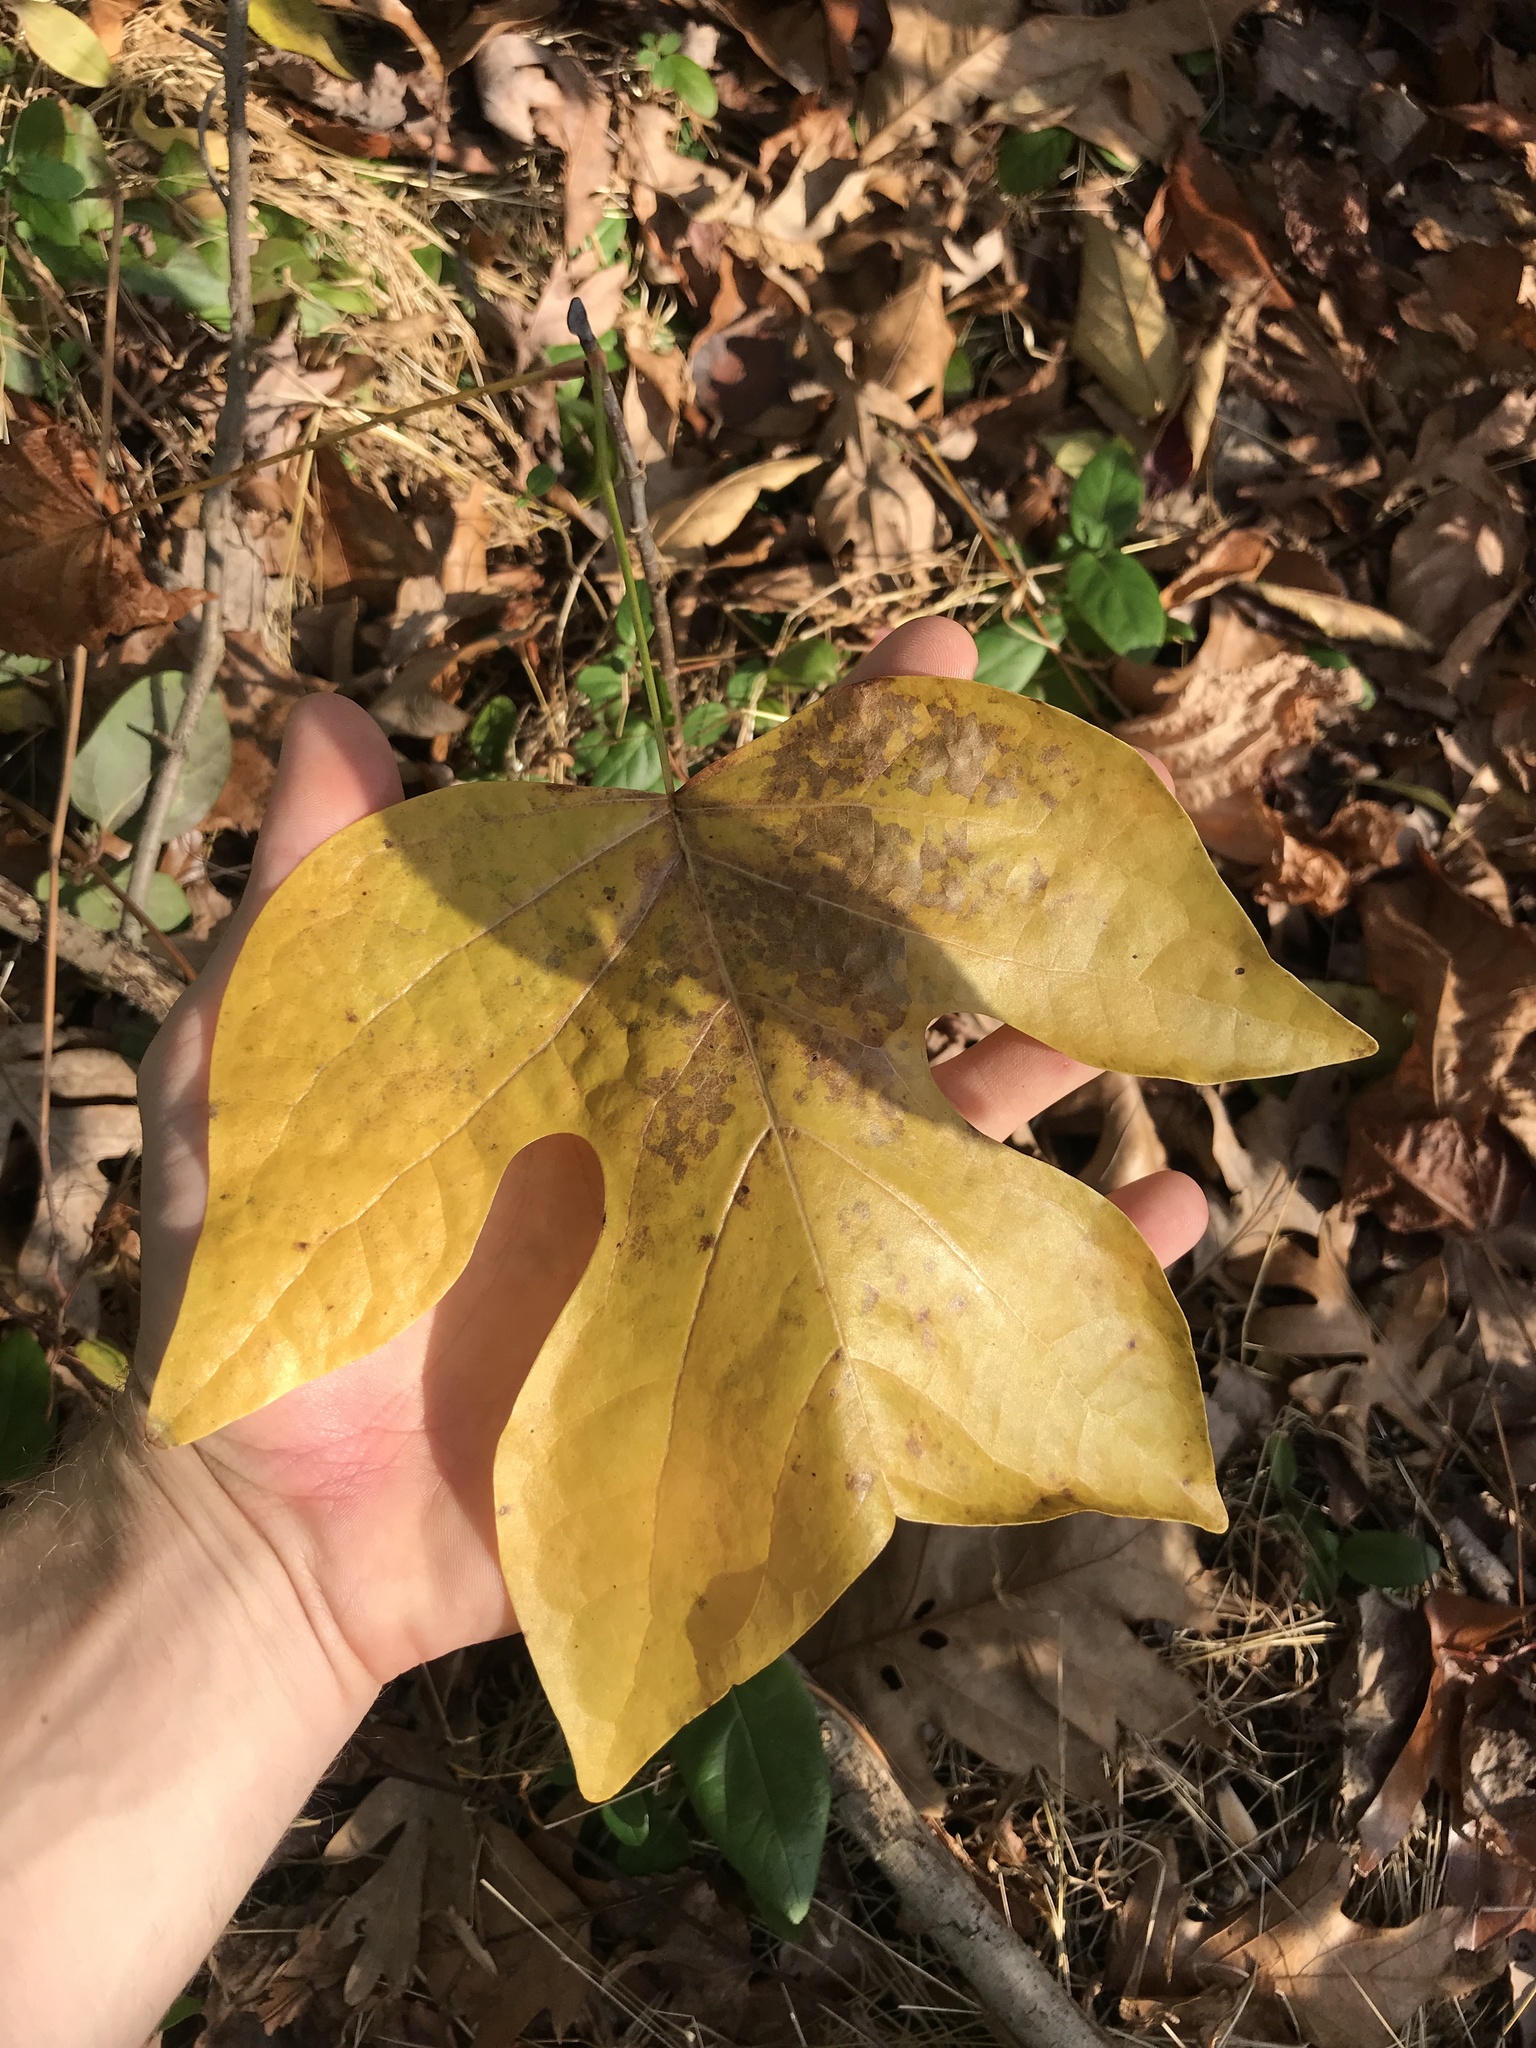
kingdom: Plantae
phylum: Tracheophyta
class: Magnoliopsida
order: Magnoliales
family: Magnoliaceae
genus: Liriodendron
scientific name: Liriodendron tulipifera
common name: Tulip tree
